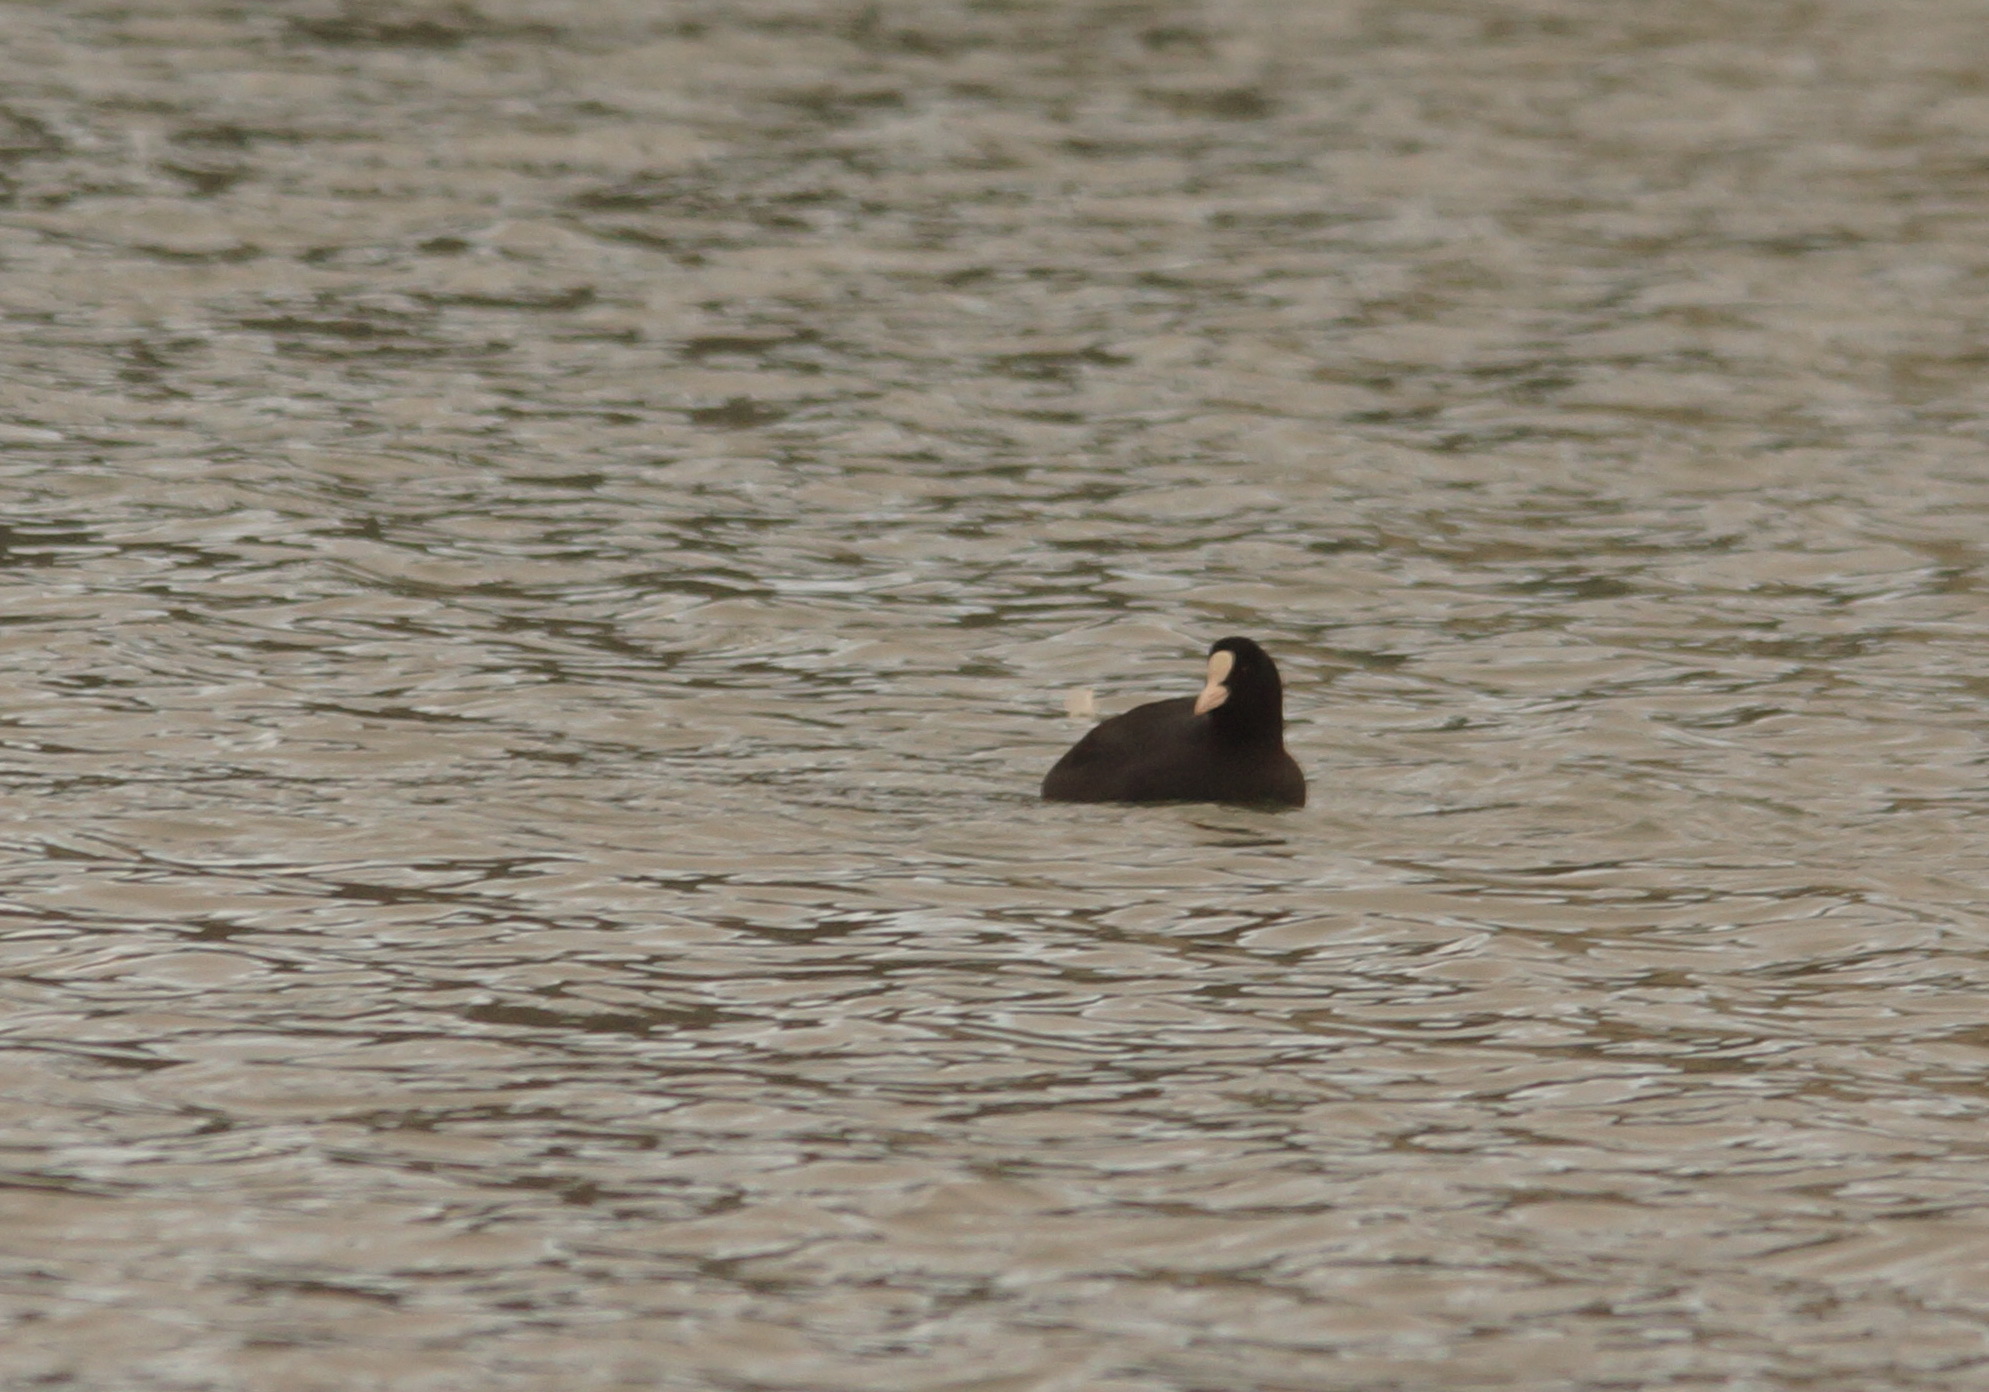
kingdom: Animalia
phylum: Chordata
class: Aves
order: Gruiformes
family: Rallidae
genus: Fulica
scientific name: Fulica atra
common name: Eurasian coot
